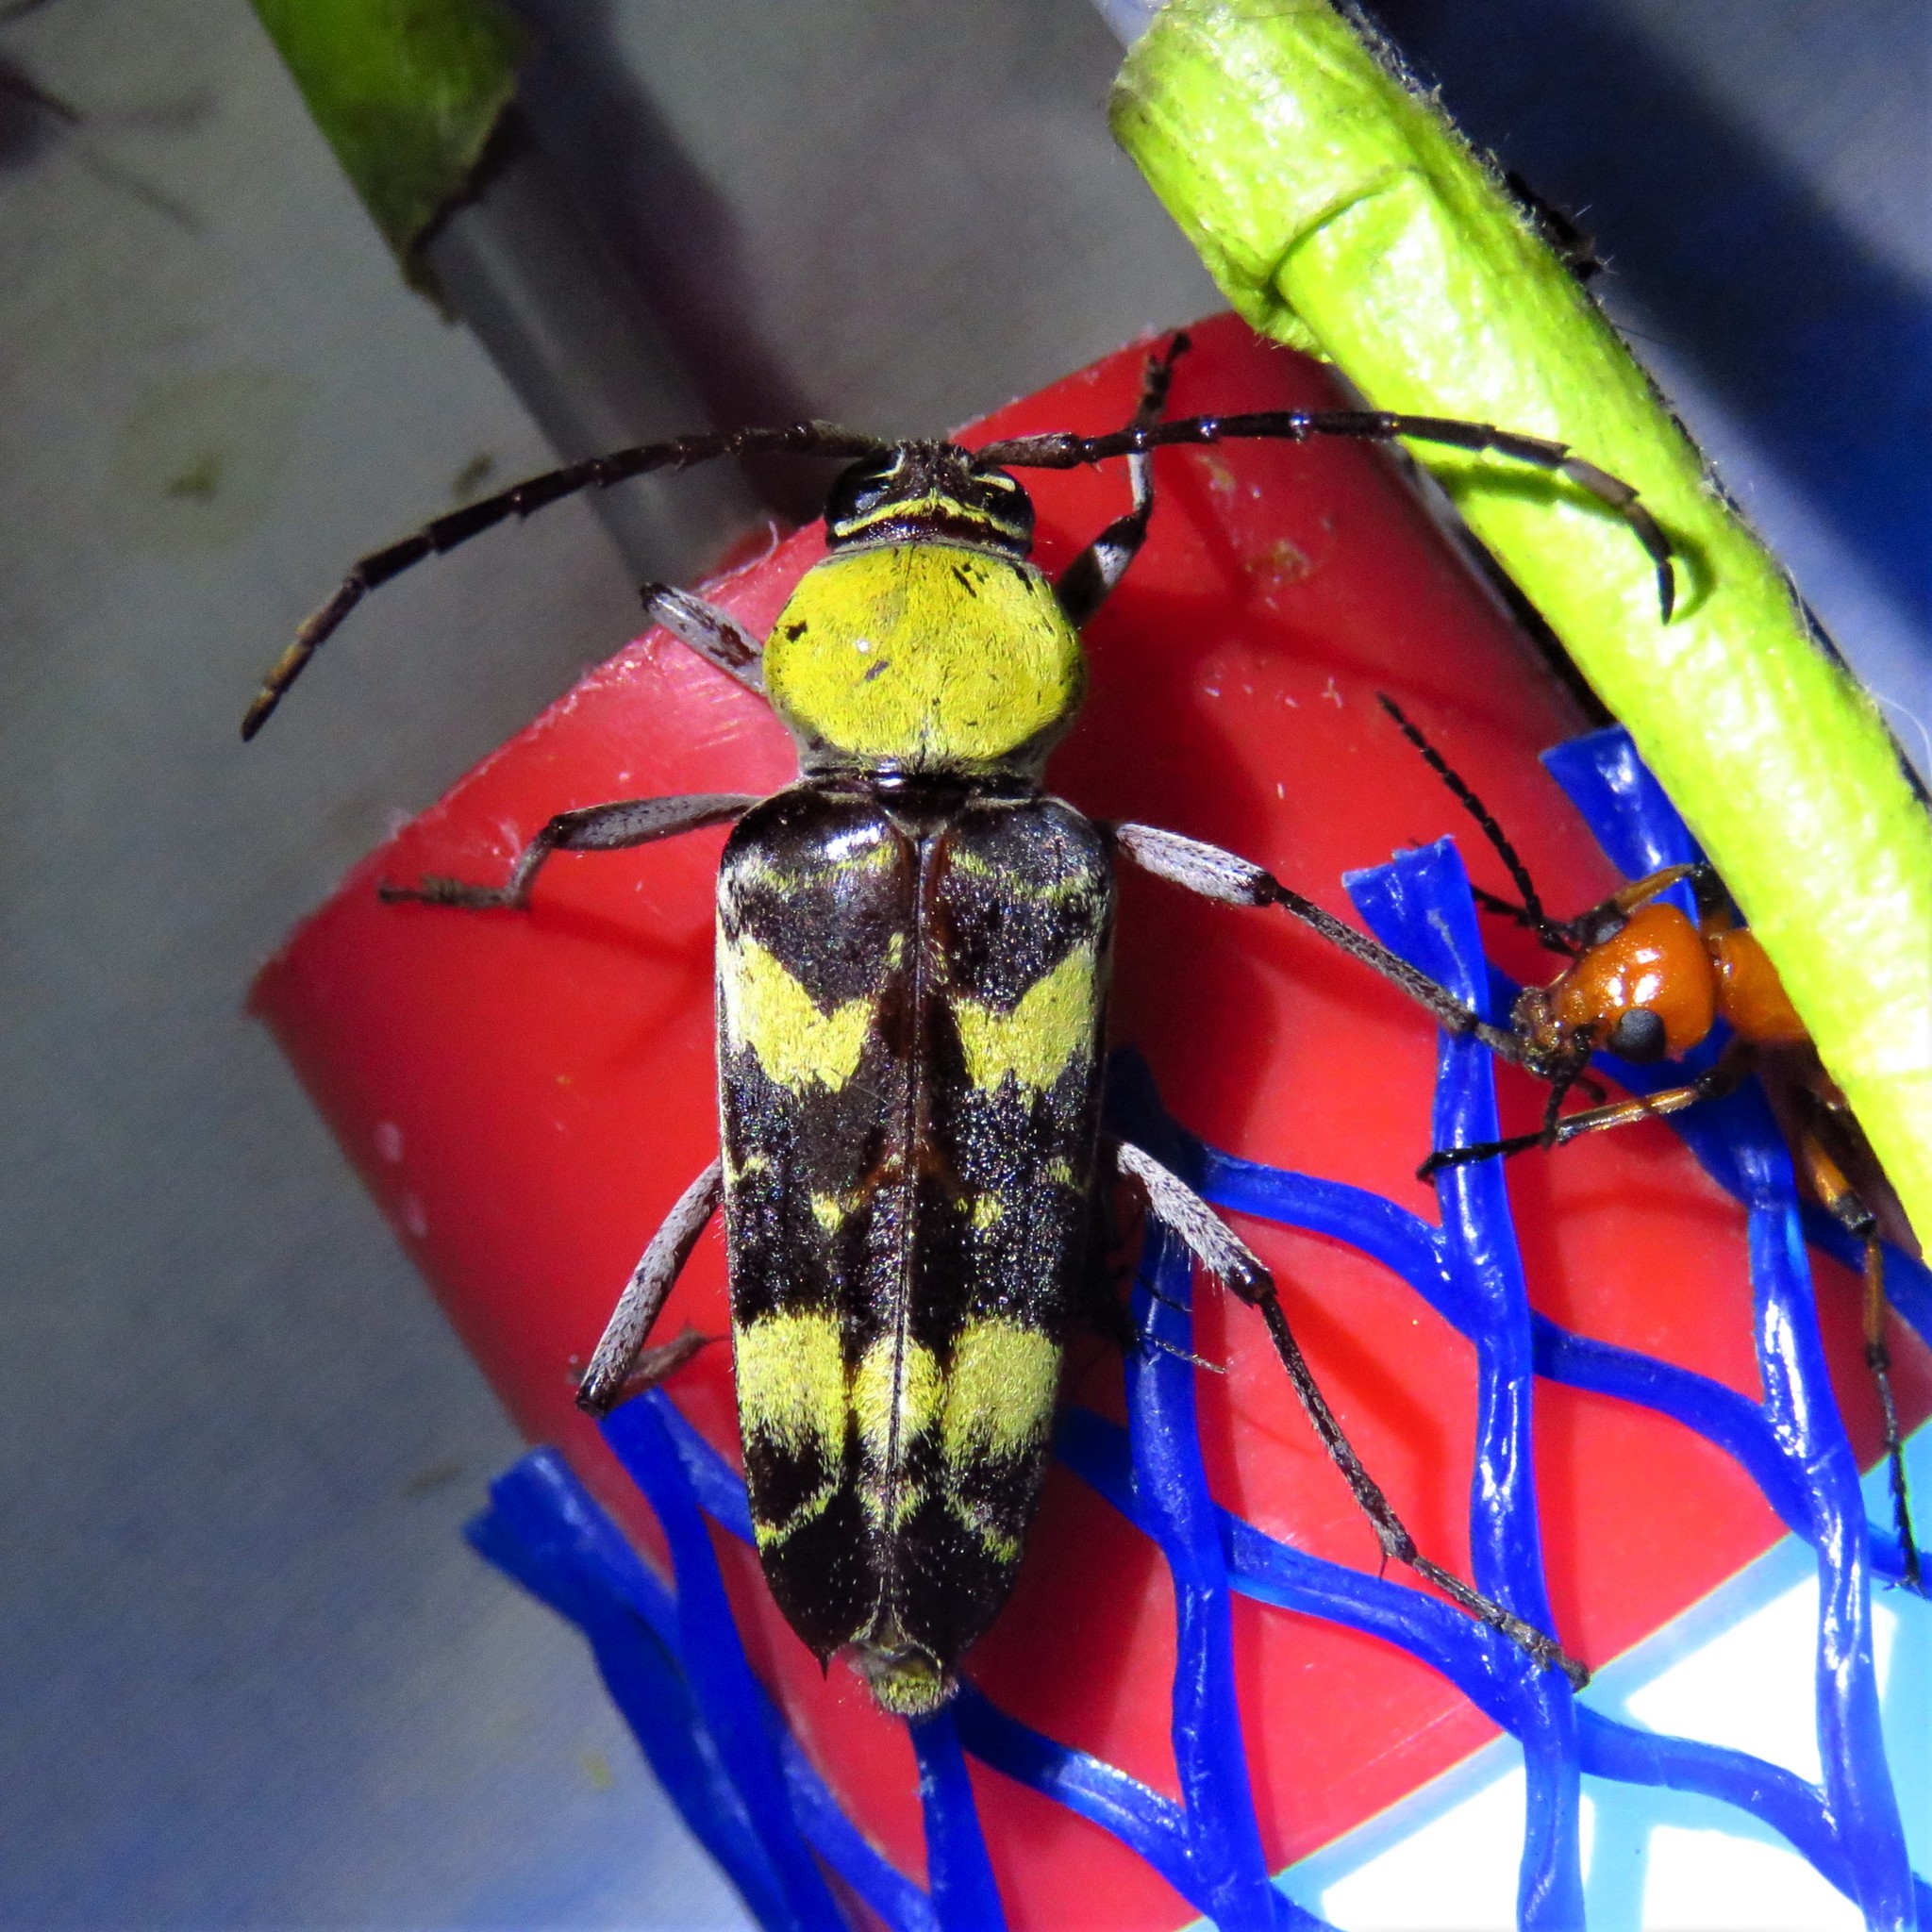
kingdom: Animalia
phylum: Arthropoda
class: Insecta
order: Coleoptera
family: Cerambycidae
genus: Megacyllene
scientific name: Megacyllene antennata
